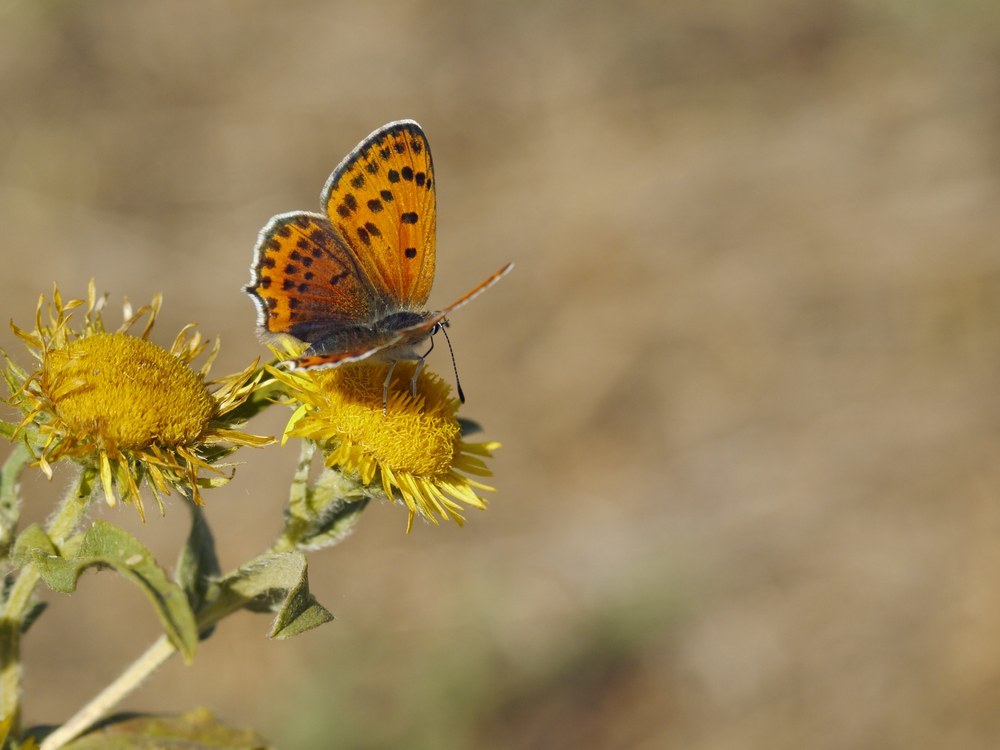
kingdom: Animalia
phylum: Arthropoda
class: Insecta
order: Lepidoptera
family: Lycaenidae
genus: Thersamonia
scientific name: Thersamonia thersamon
